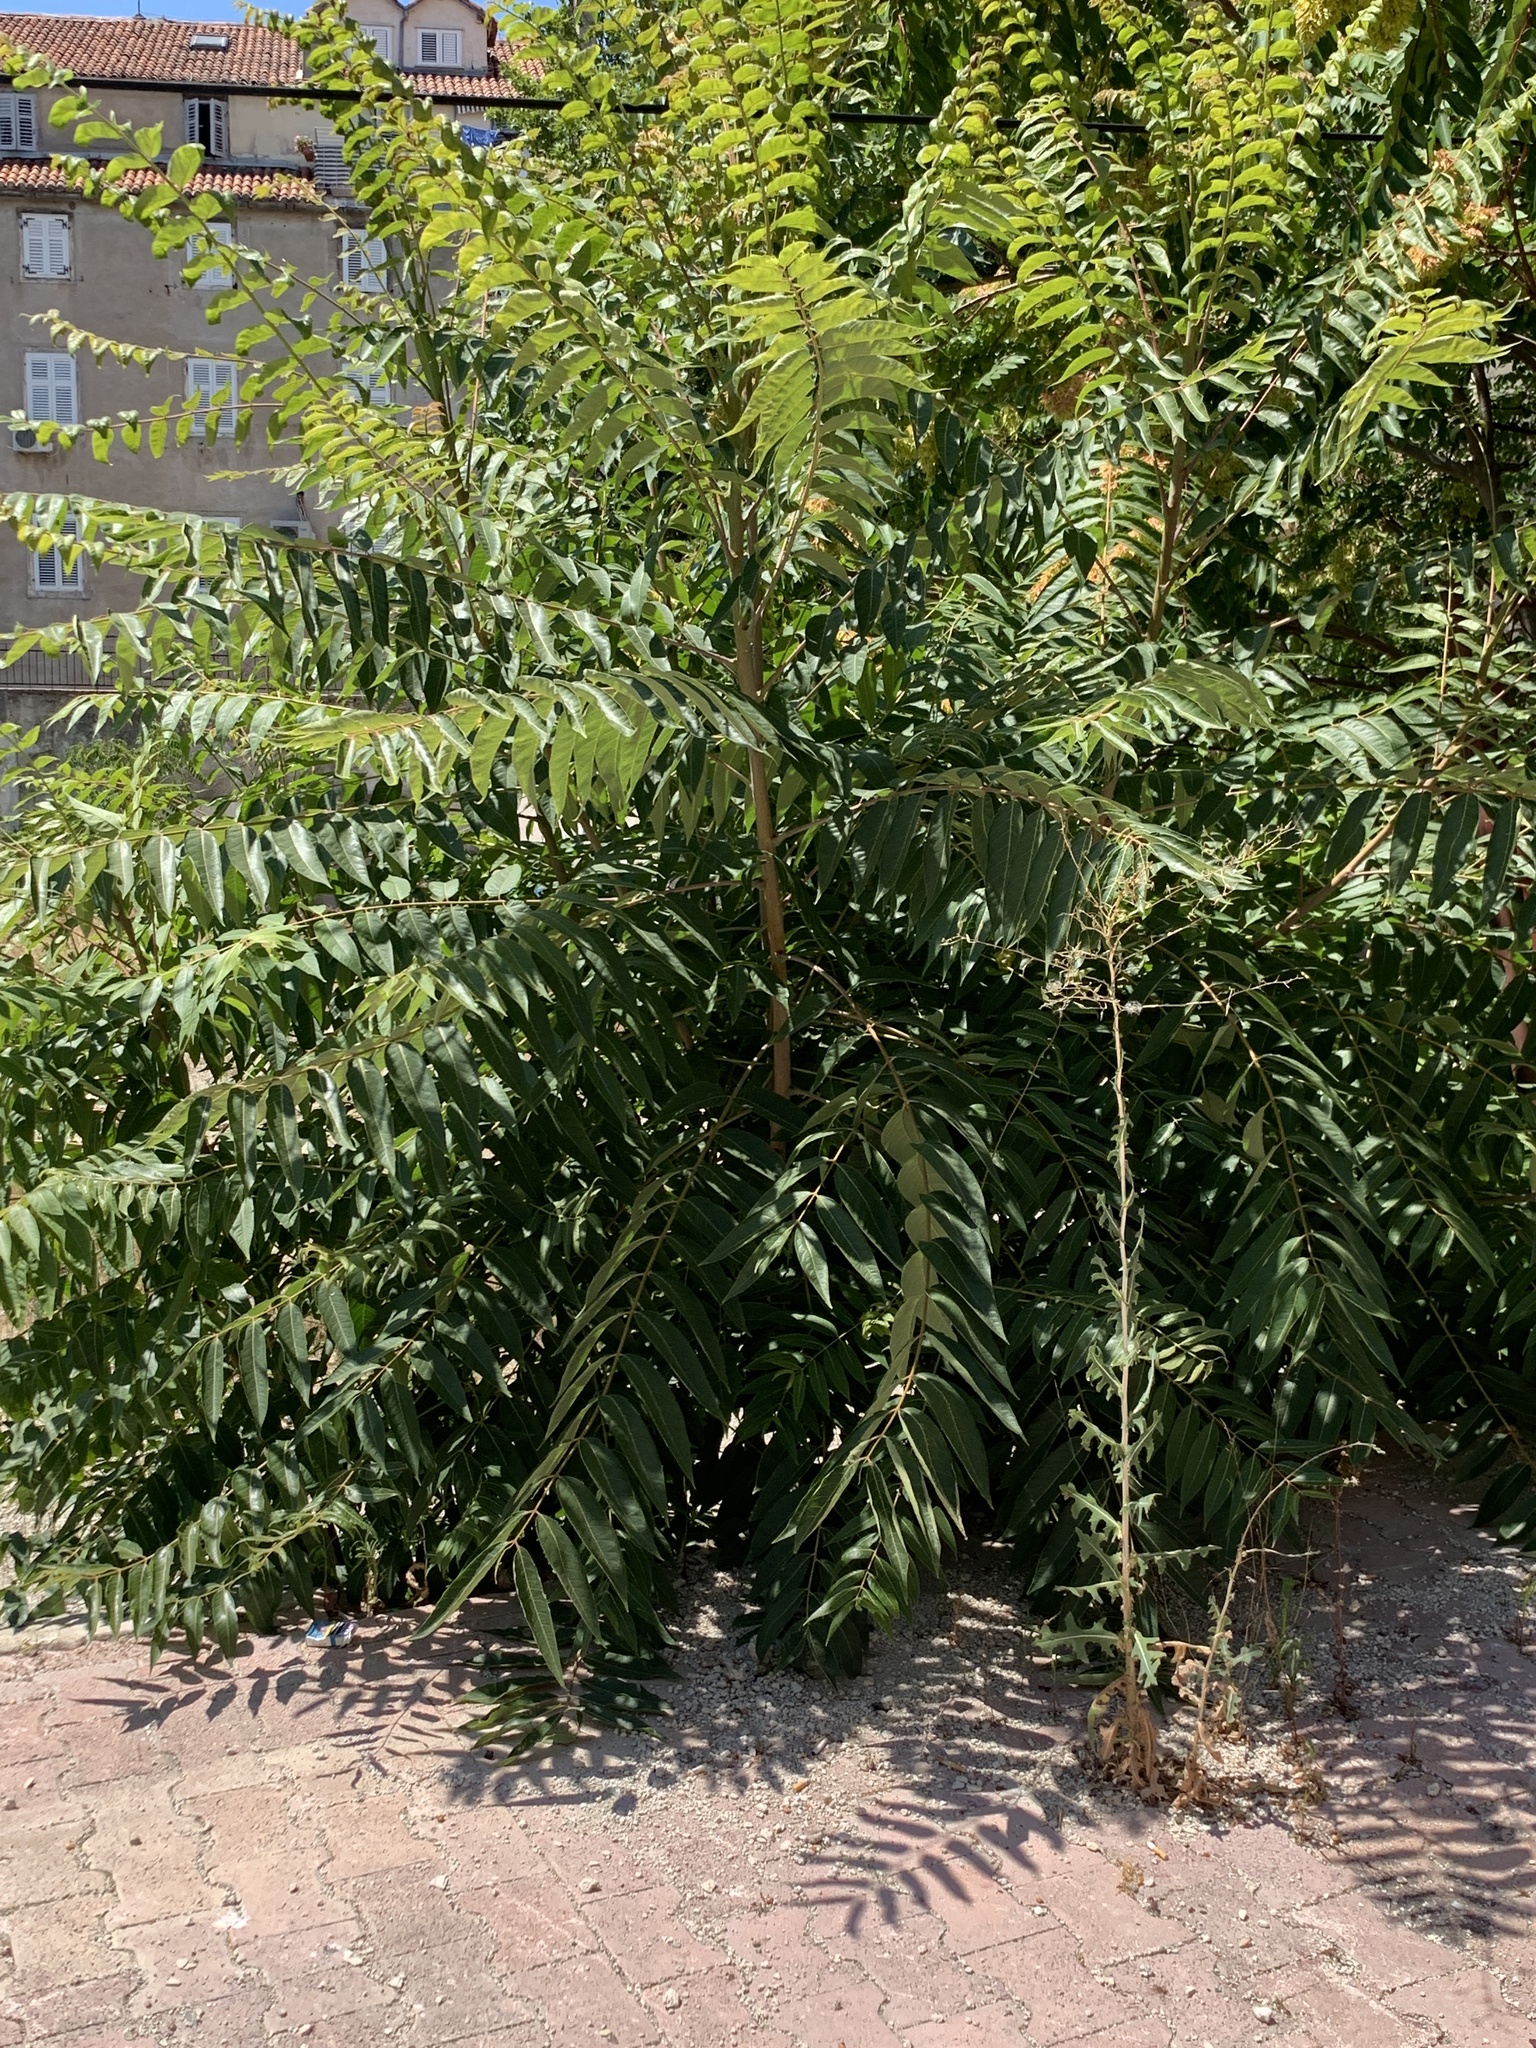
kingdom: Plantae
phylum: Tracheophyta
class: Magnoliopsida
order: Sapindales
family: Simaroubaceae
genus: Ailanthus
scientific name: Ailanthus altissima
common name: Tree-of-heaven
